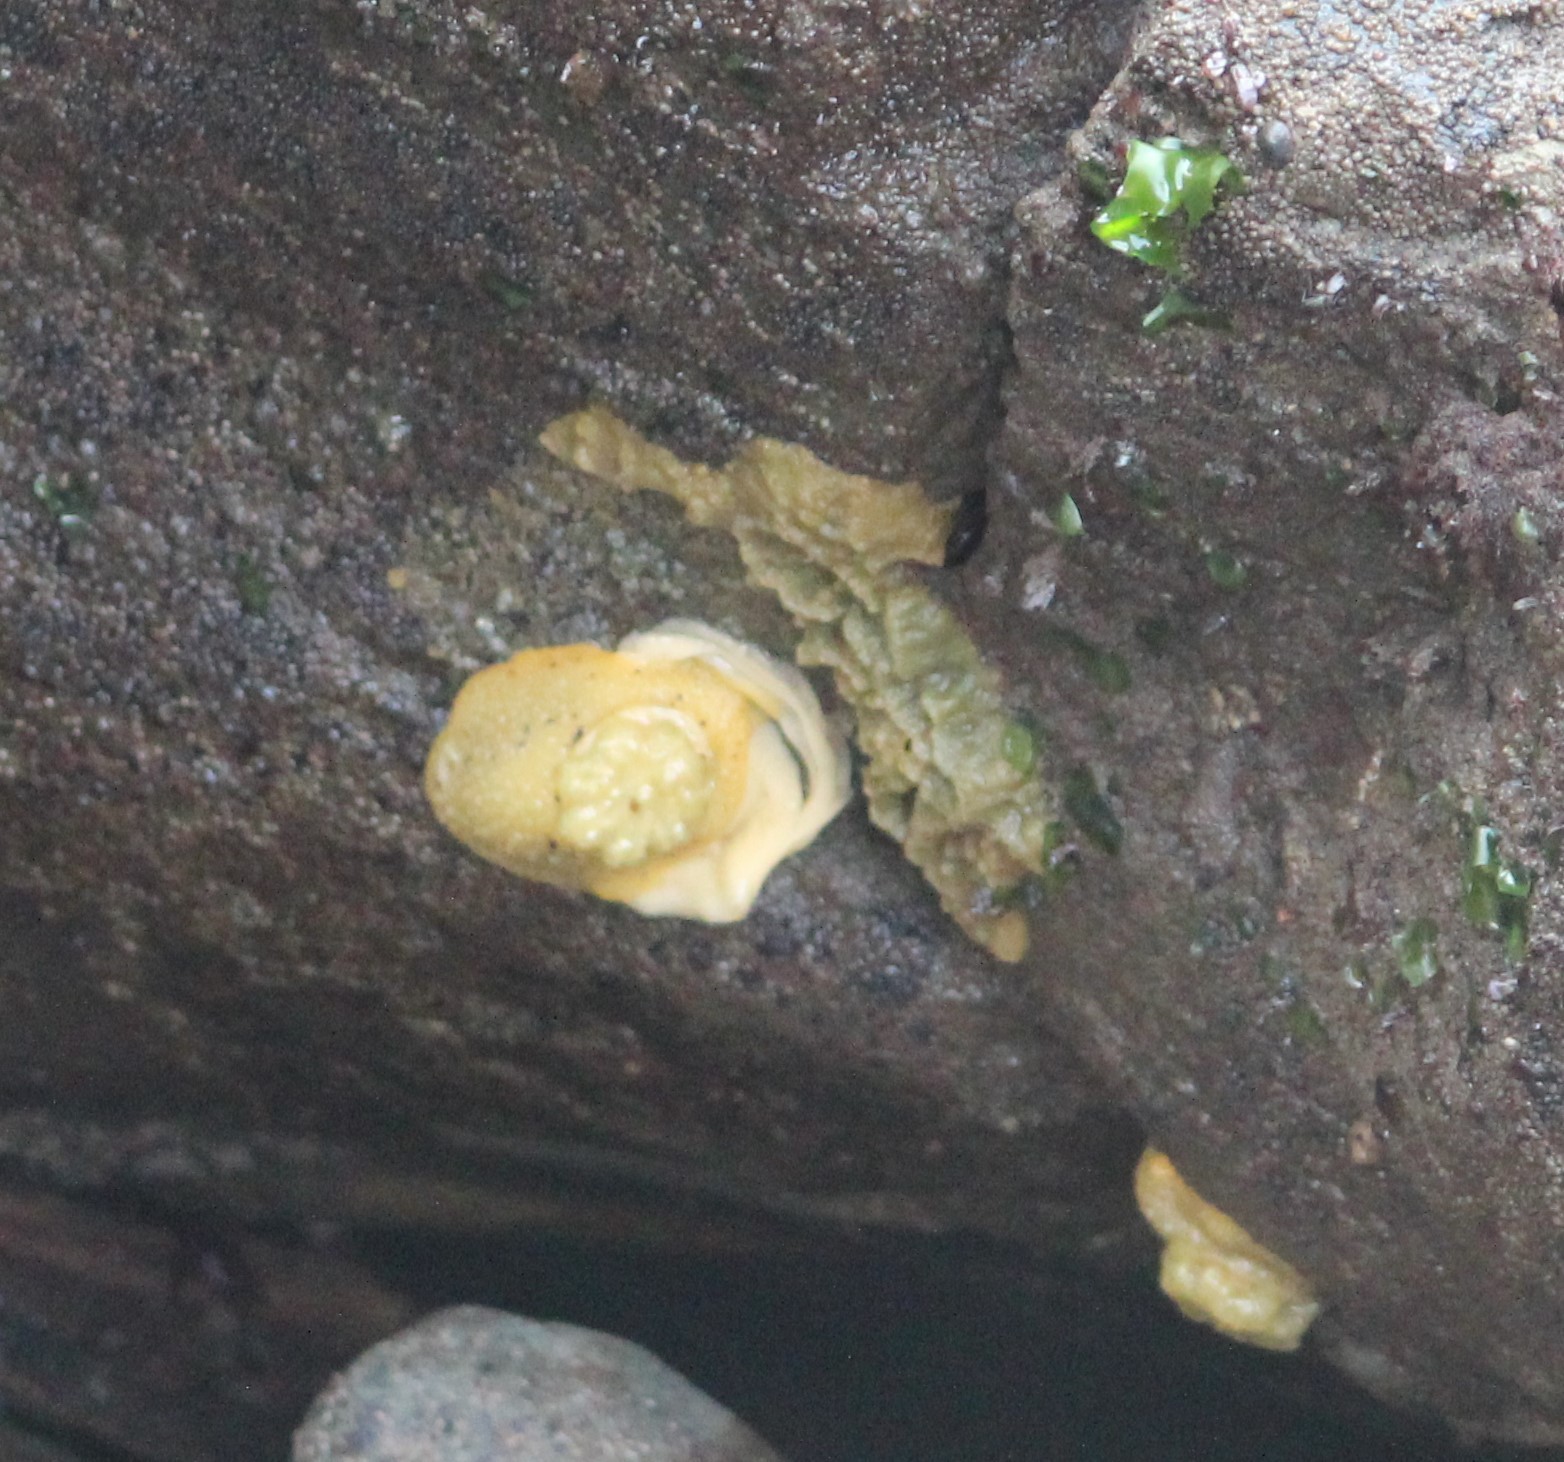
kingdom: Animalia
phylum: Mollusca
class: Gastropoda
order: Nudibranchia
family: Dorididae
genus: Doris
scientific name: Doris montereyensis
